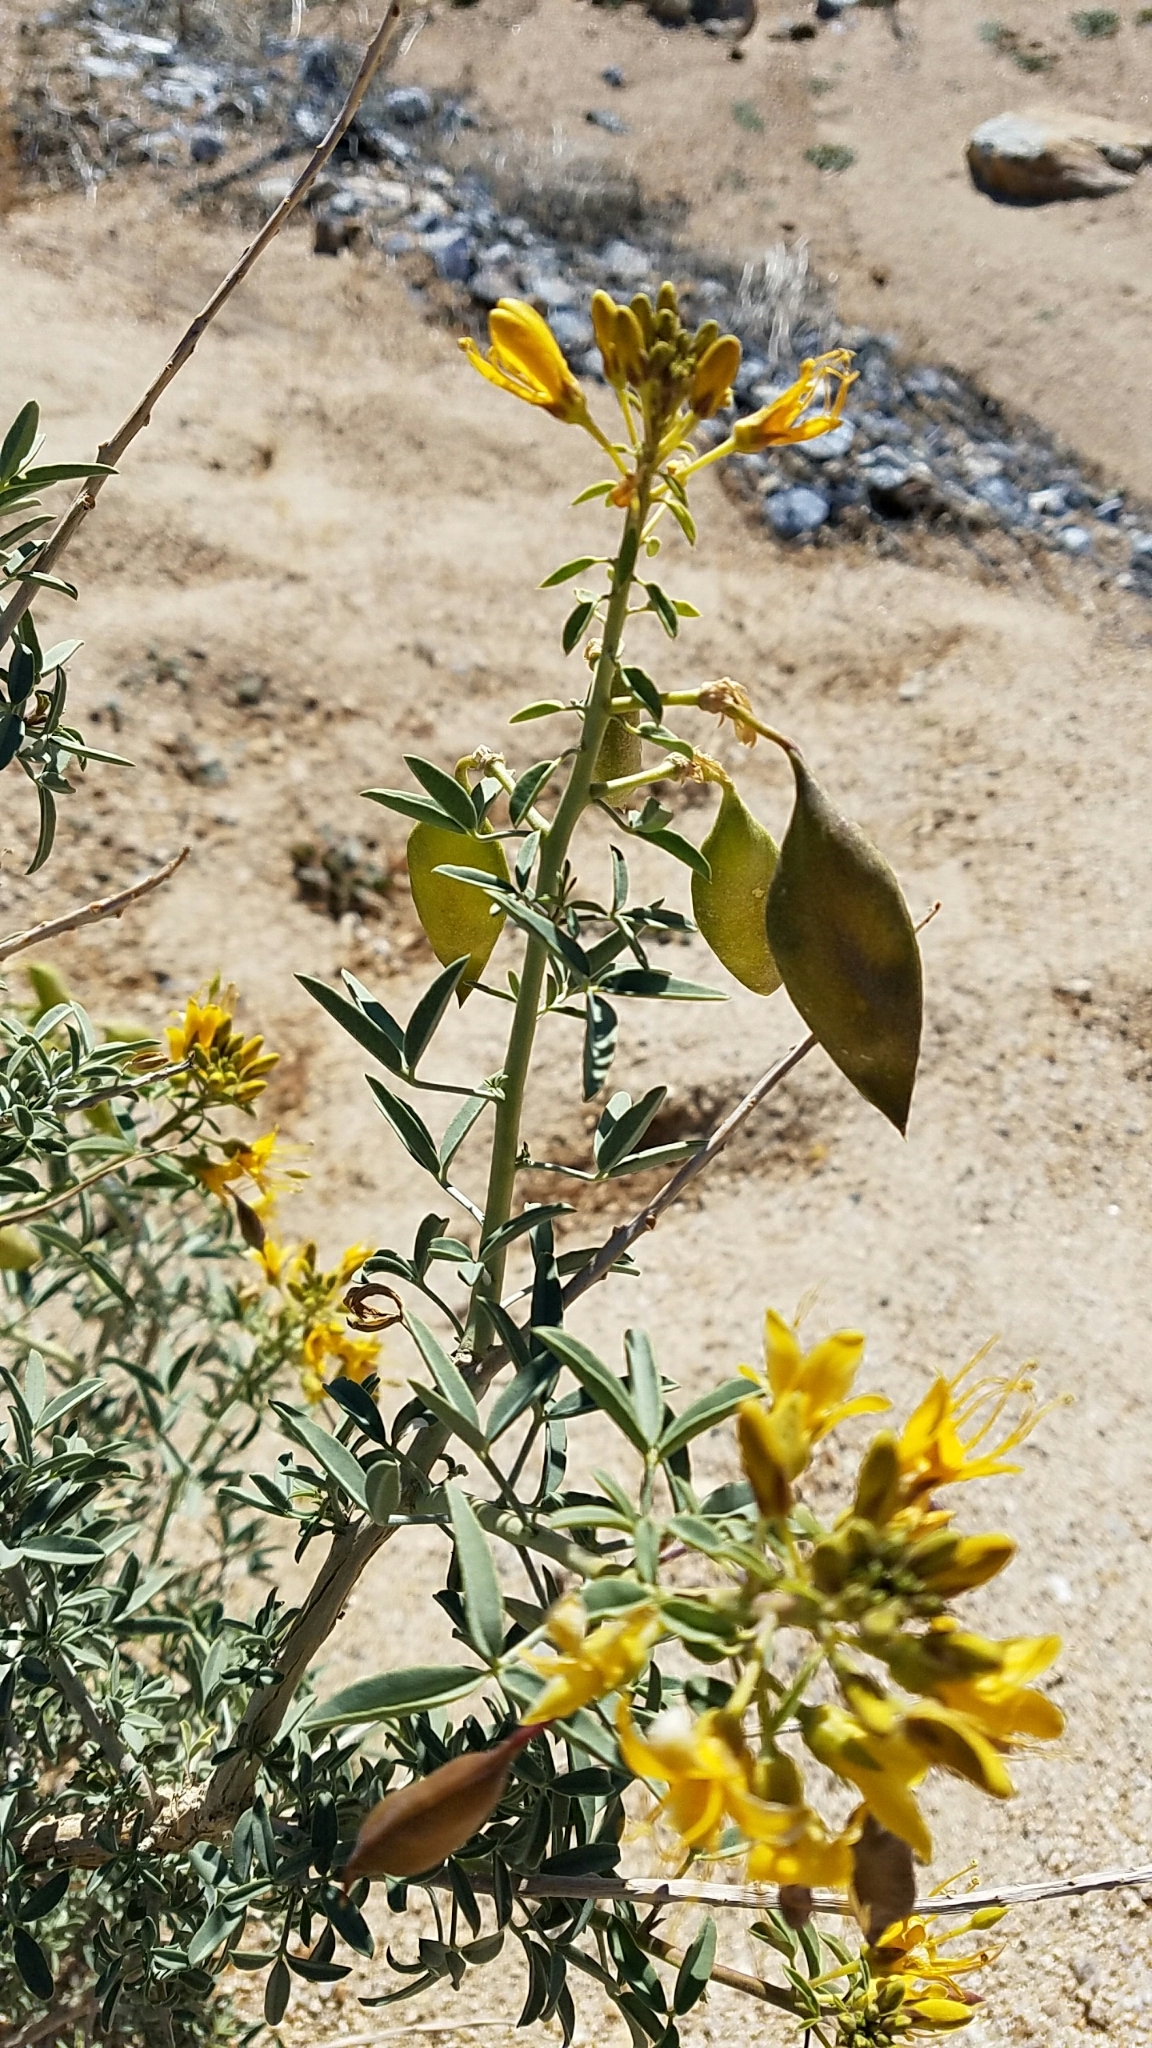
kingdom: Plantae
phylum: Tracheophyta
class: Magnoliopsida
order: Brassicales
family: Cleomaceae
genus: Cleomella
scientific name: Cleomella arborea
